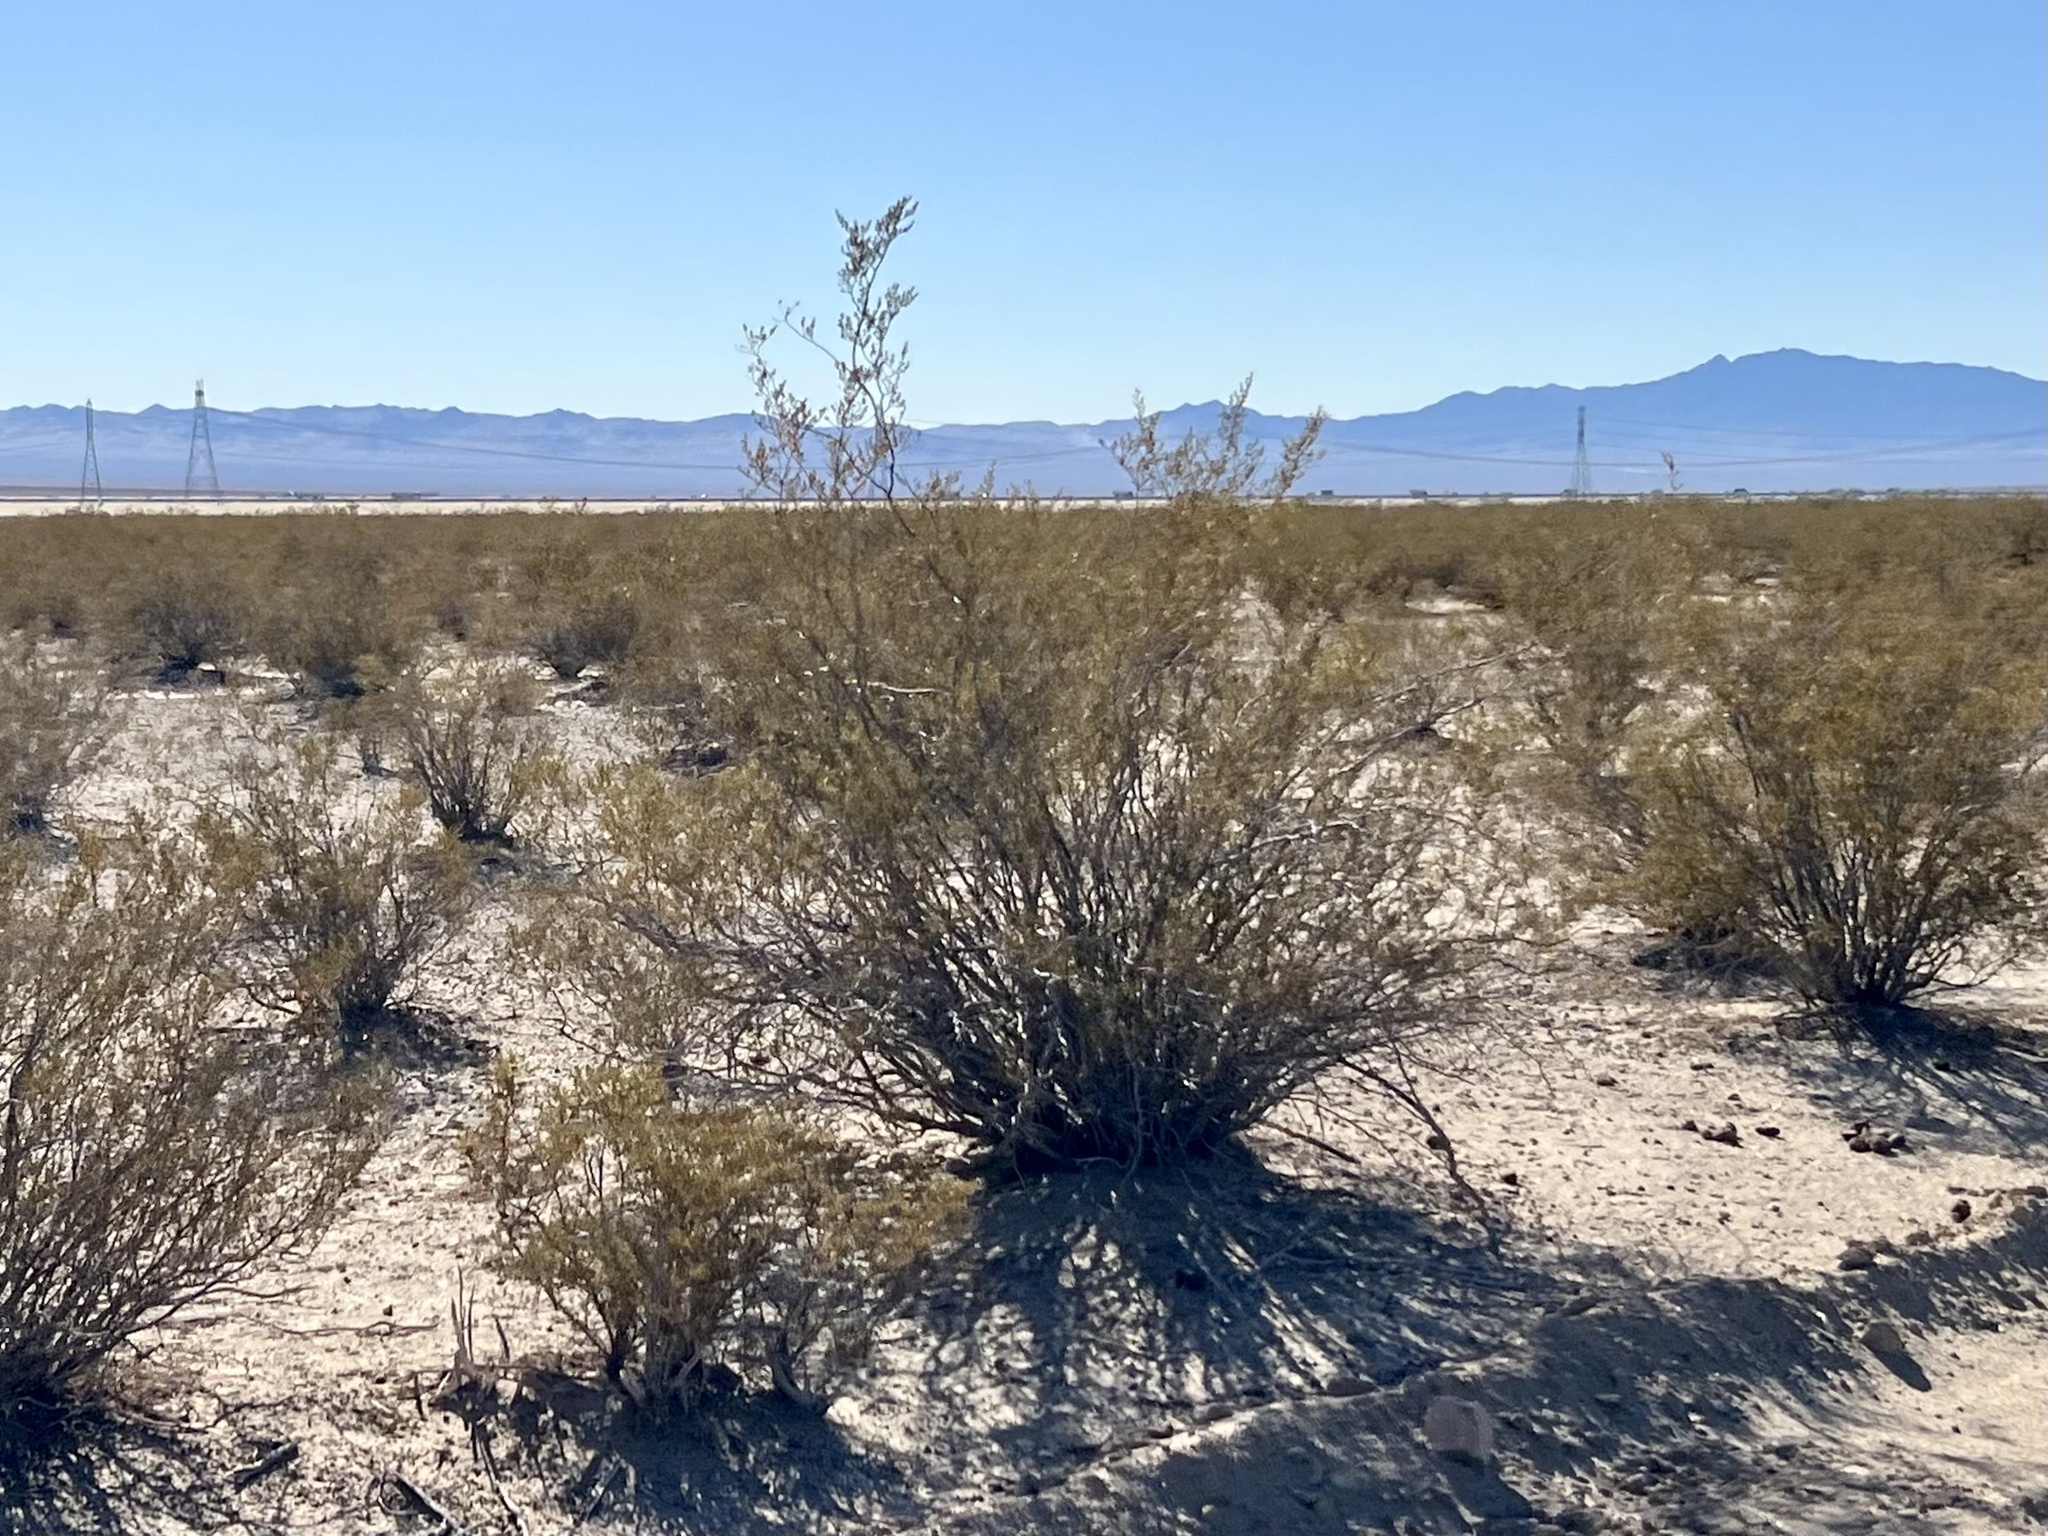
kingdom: Plantae
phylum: Tracheophyta
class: Magnoliopsida
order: Zygophyllales
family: Zygophyllaceae
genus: Larrea
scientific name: Larrea tridentata
